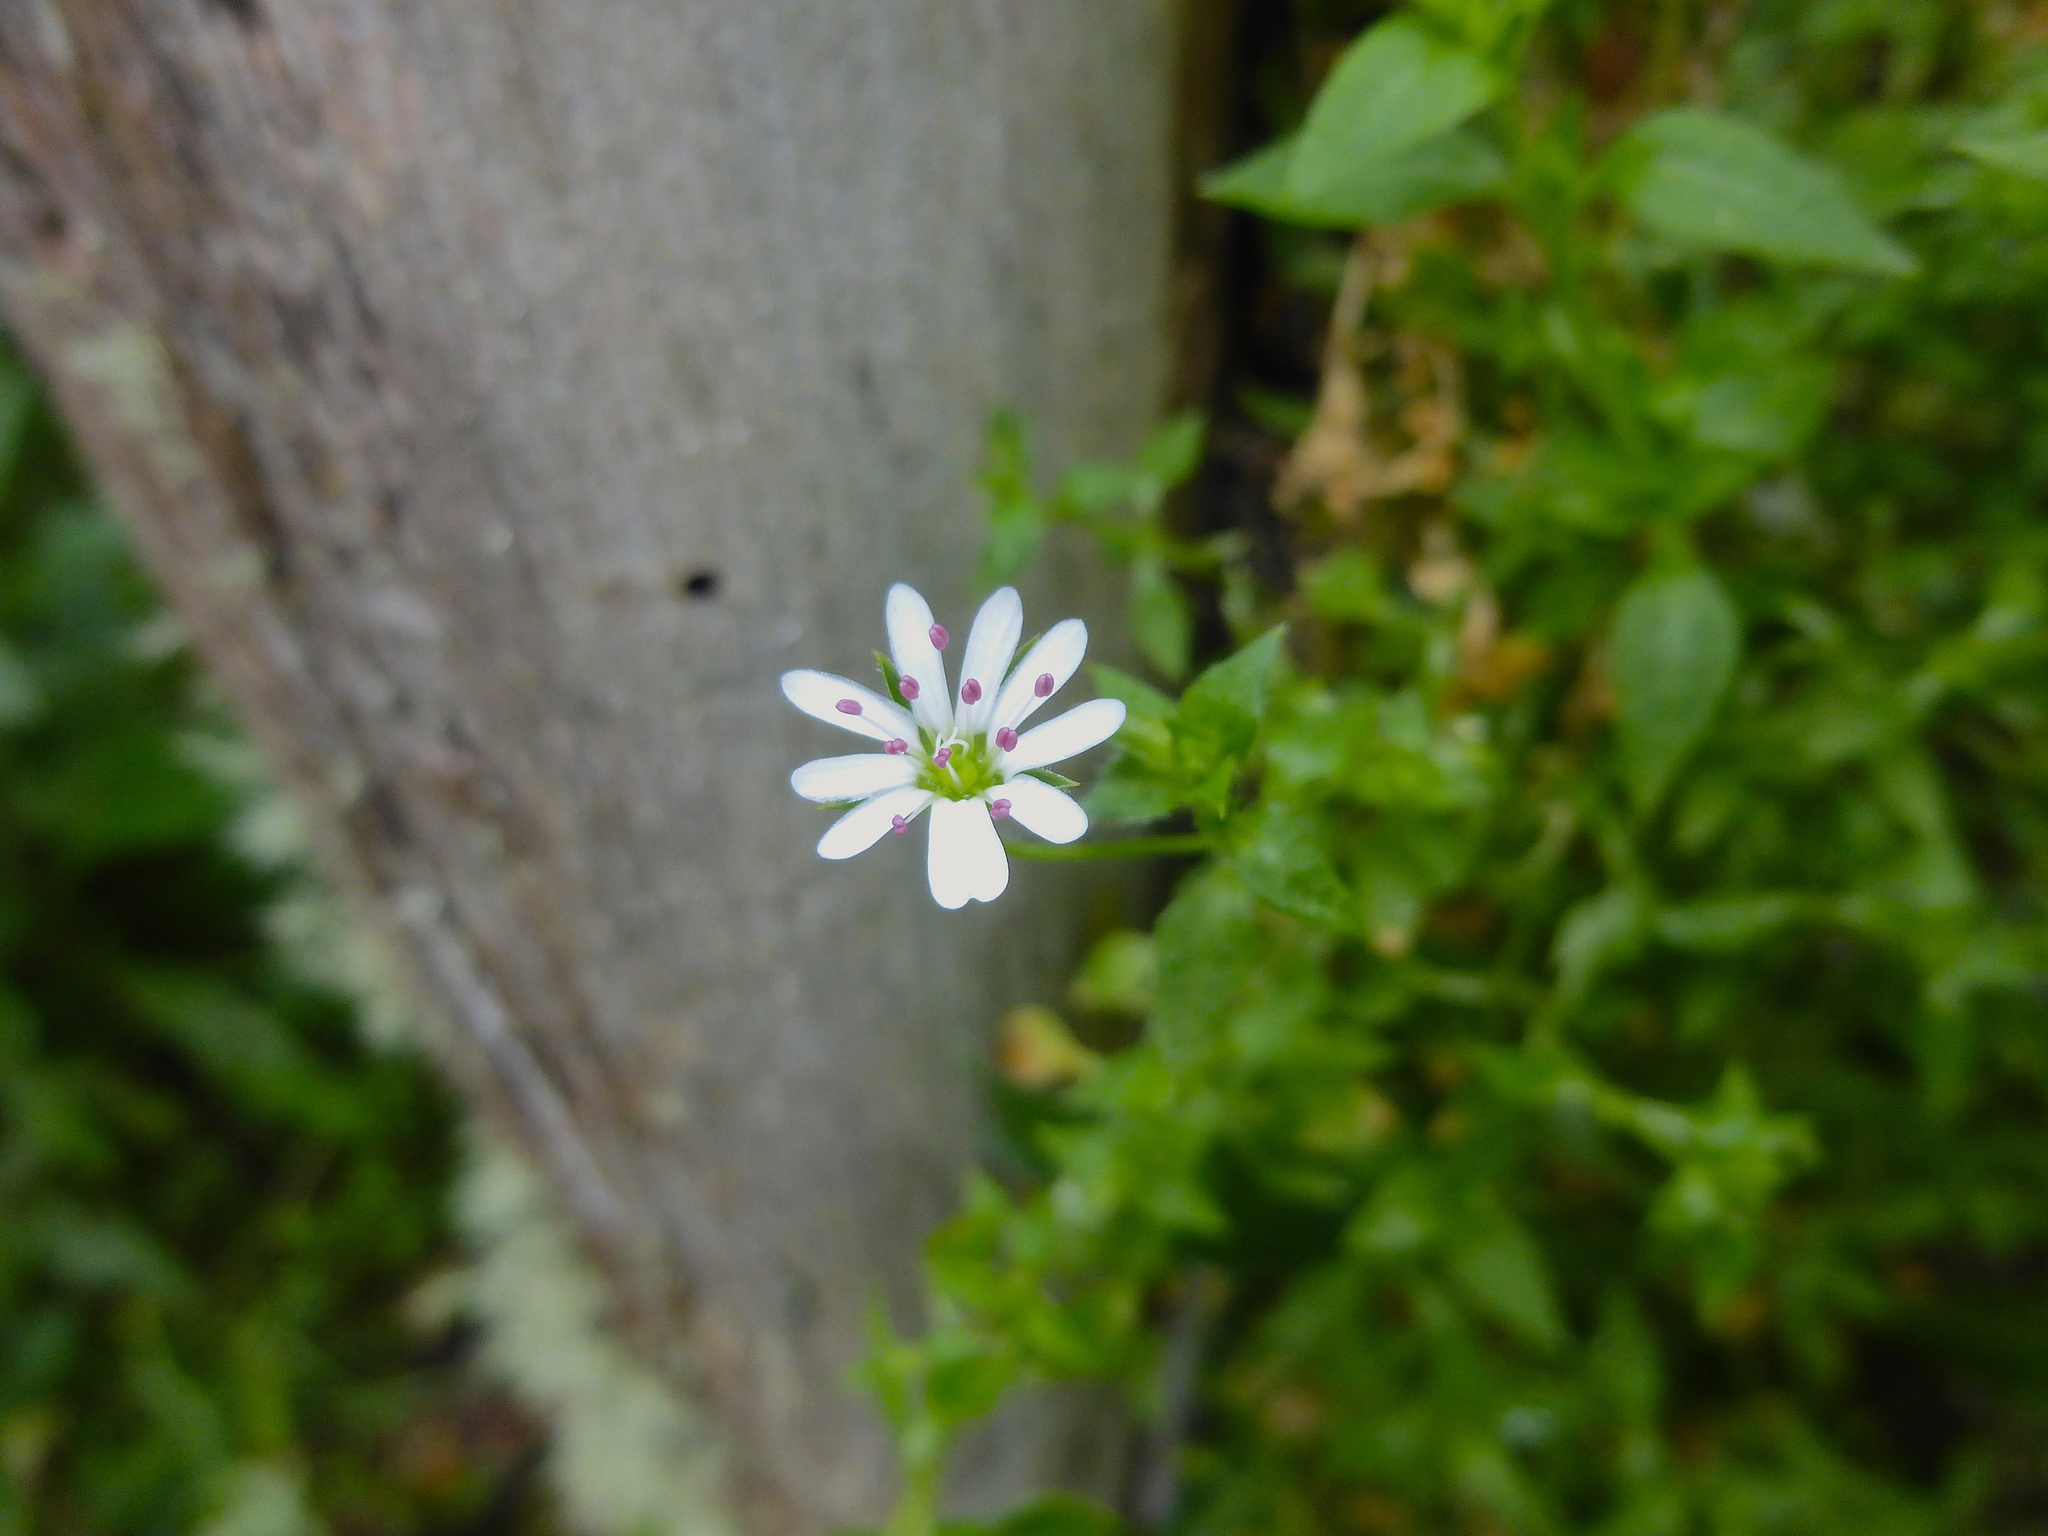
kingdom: Plantae
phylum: Tracheophyta
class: Magnoliopsida
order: Caryophyllales
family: Caryophyllaceae
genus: Stellaria
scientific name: Stellaria flaccida
